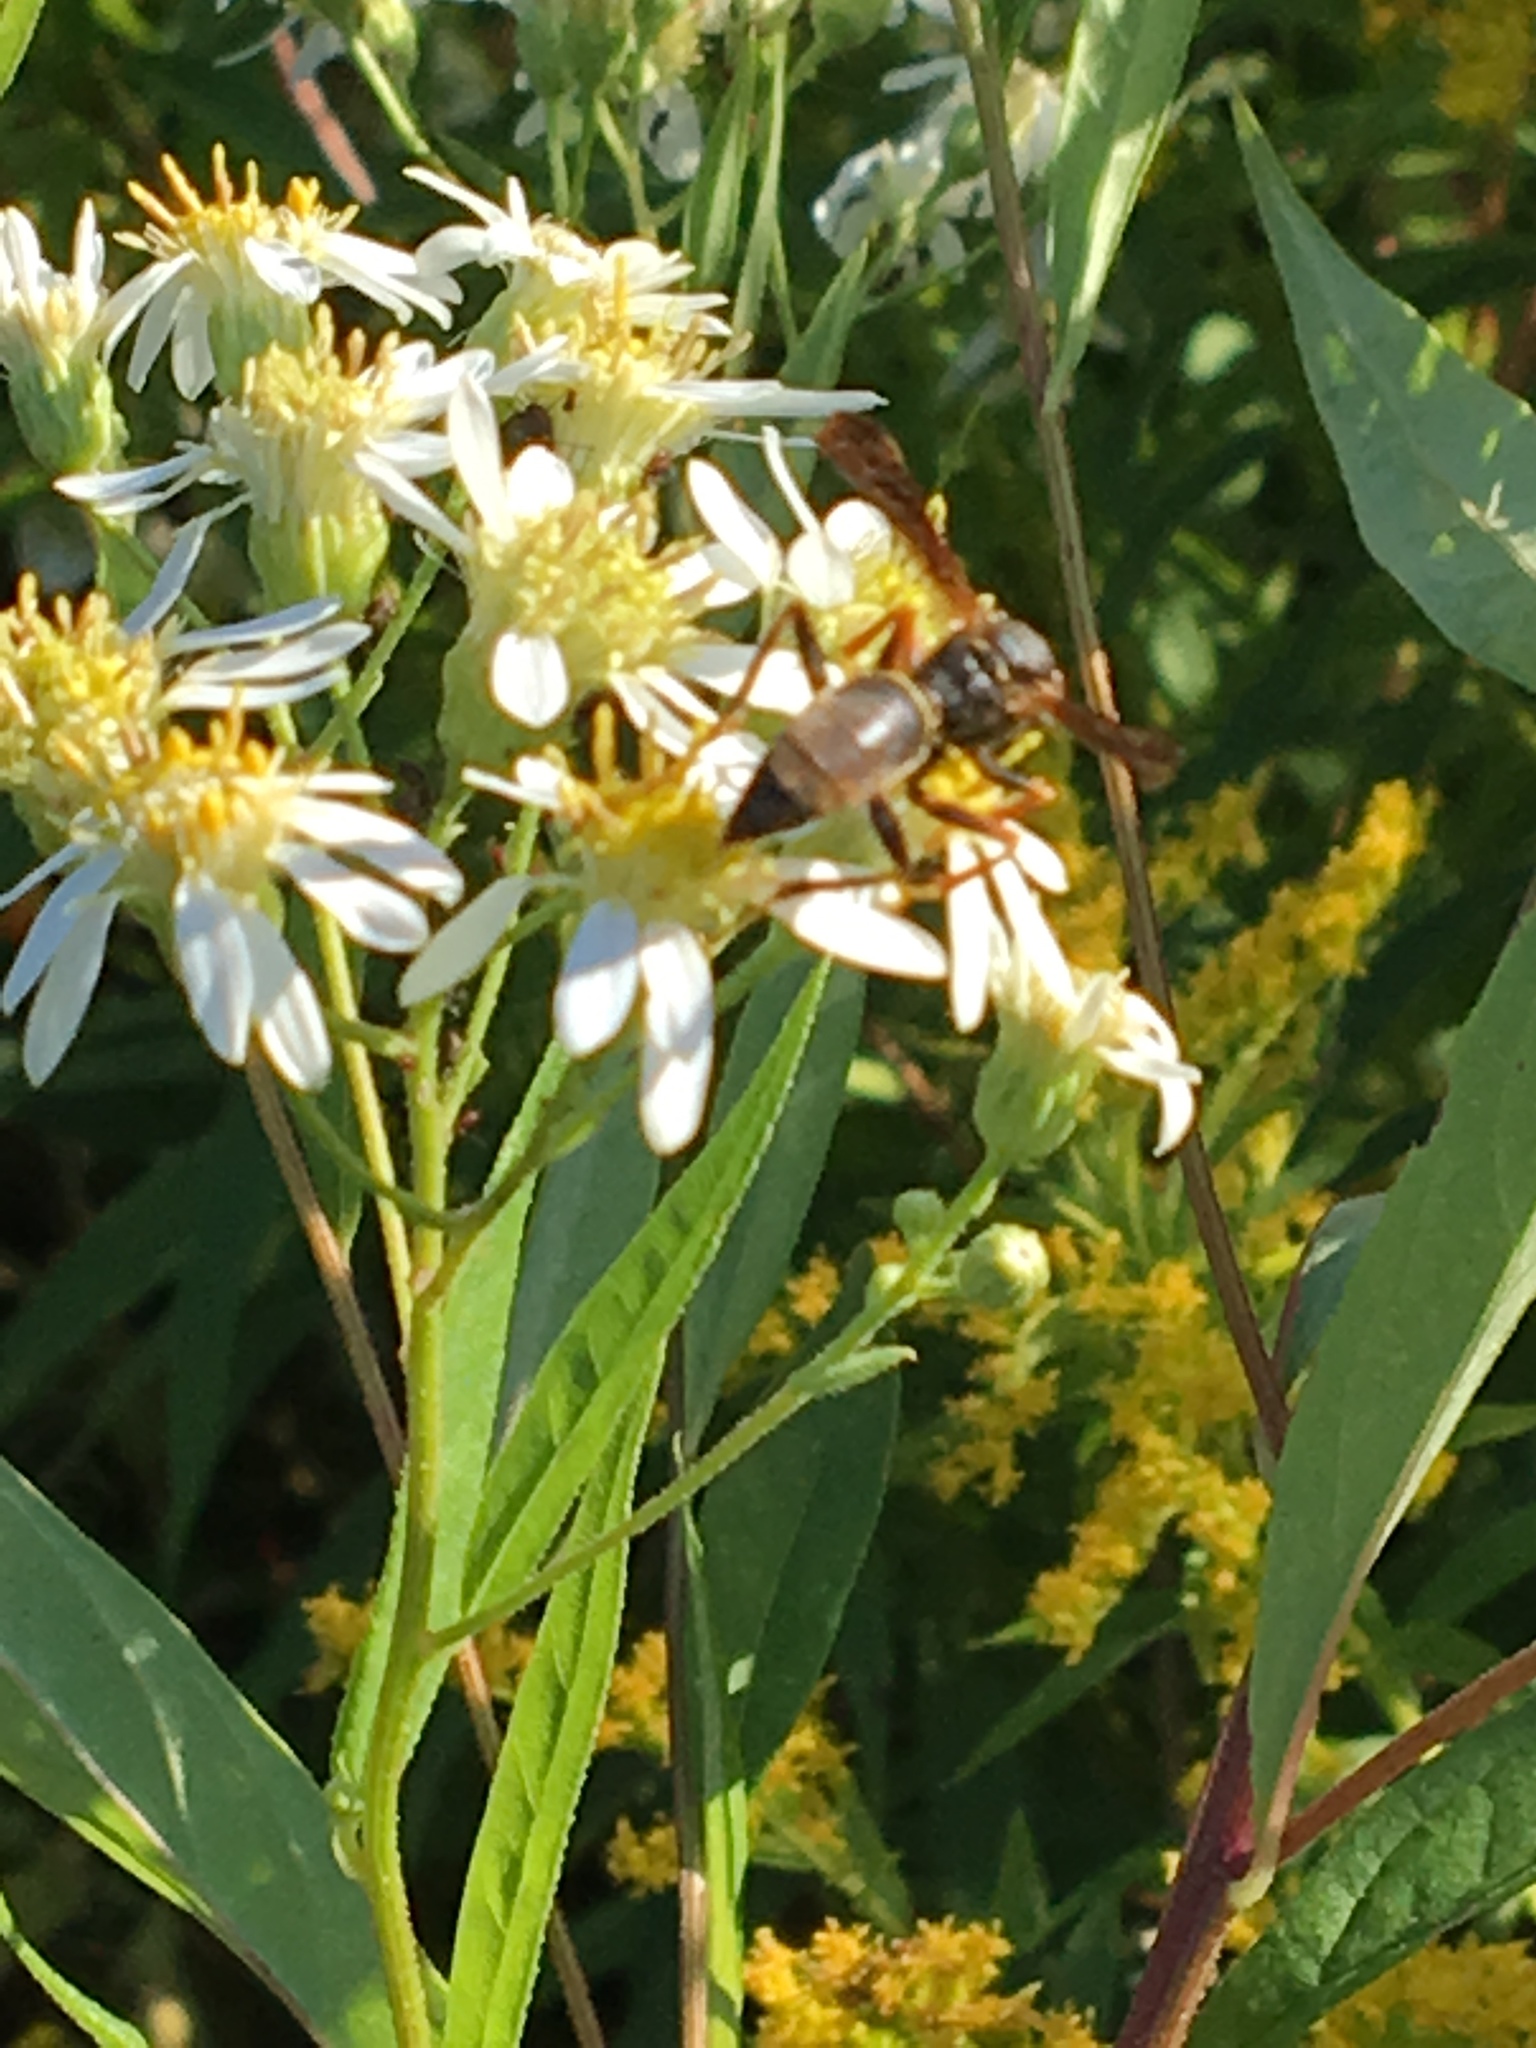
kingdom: Animalia
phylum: Arthropoda
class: Insecta
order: Hymenoptera
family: Eumenidae
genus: Polistes
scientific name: Polistes fuscatus
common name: Dark paper wasp
